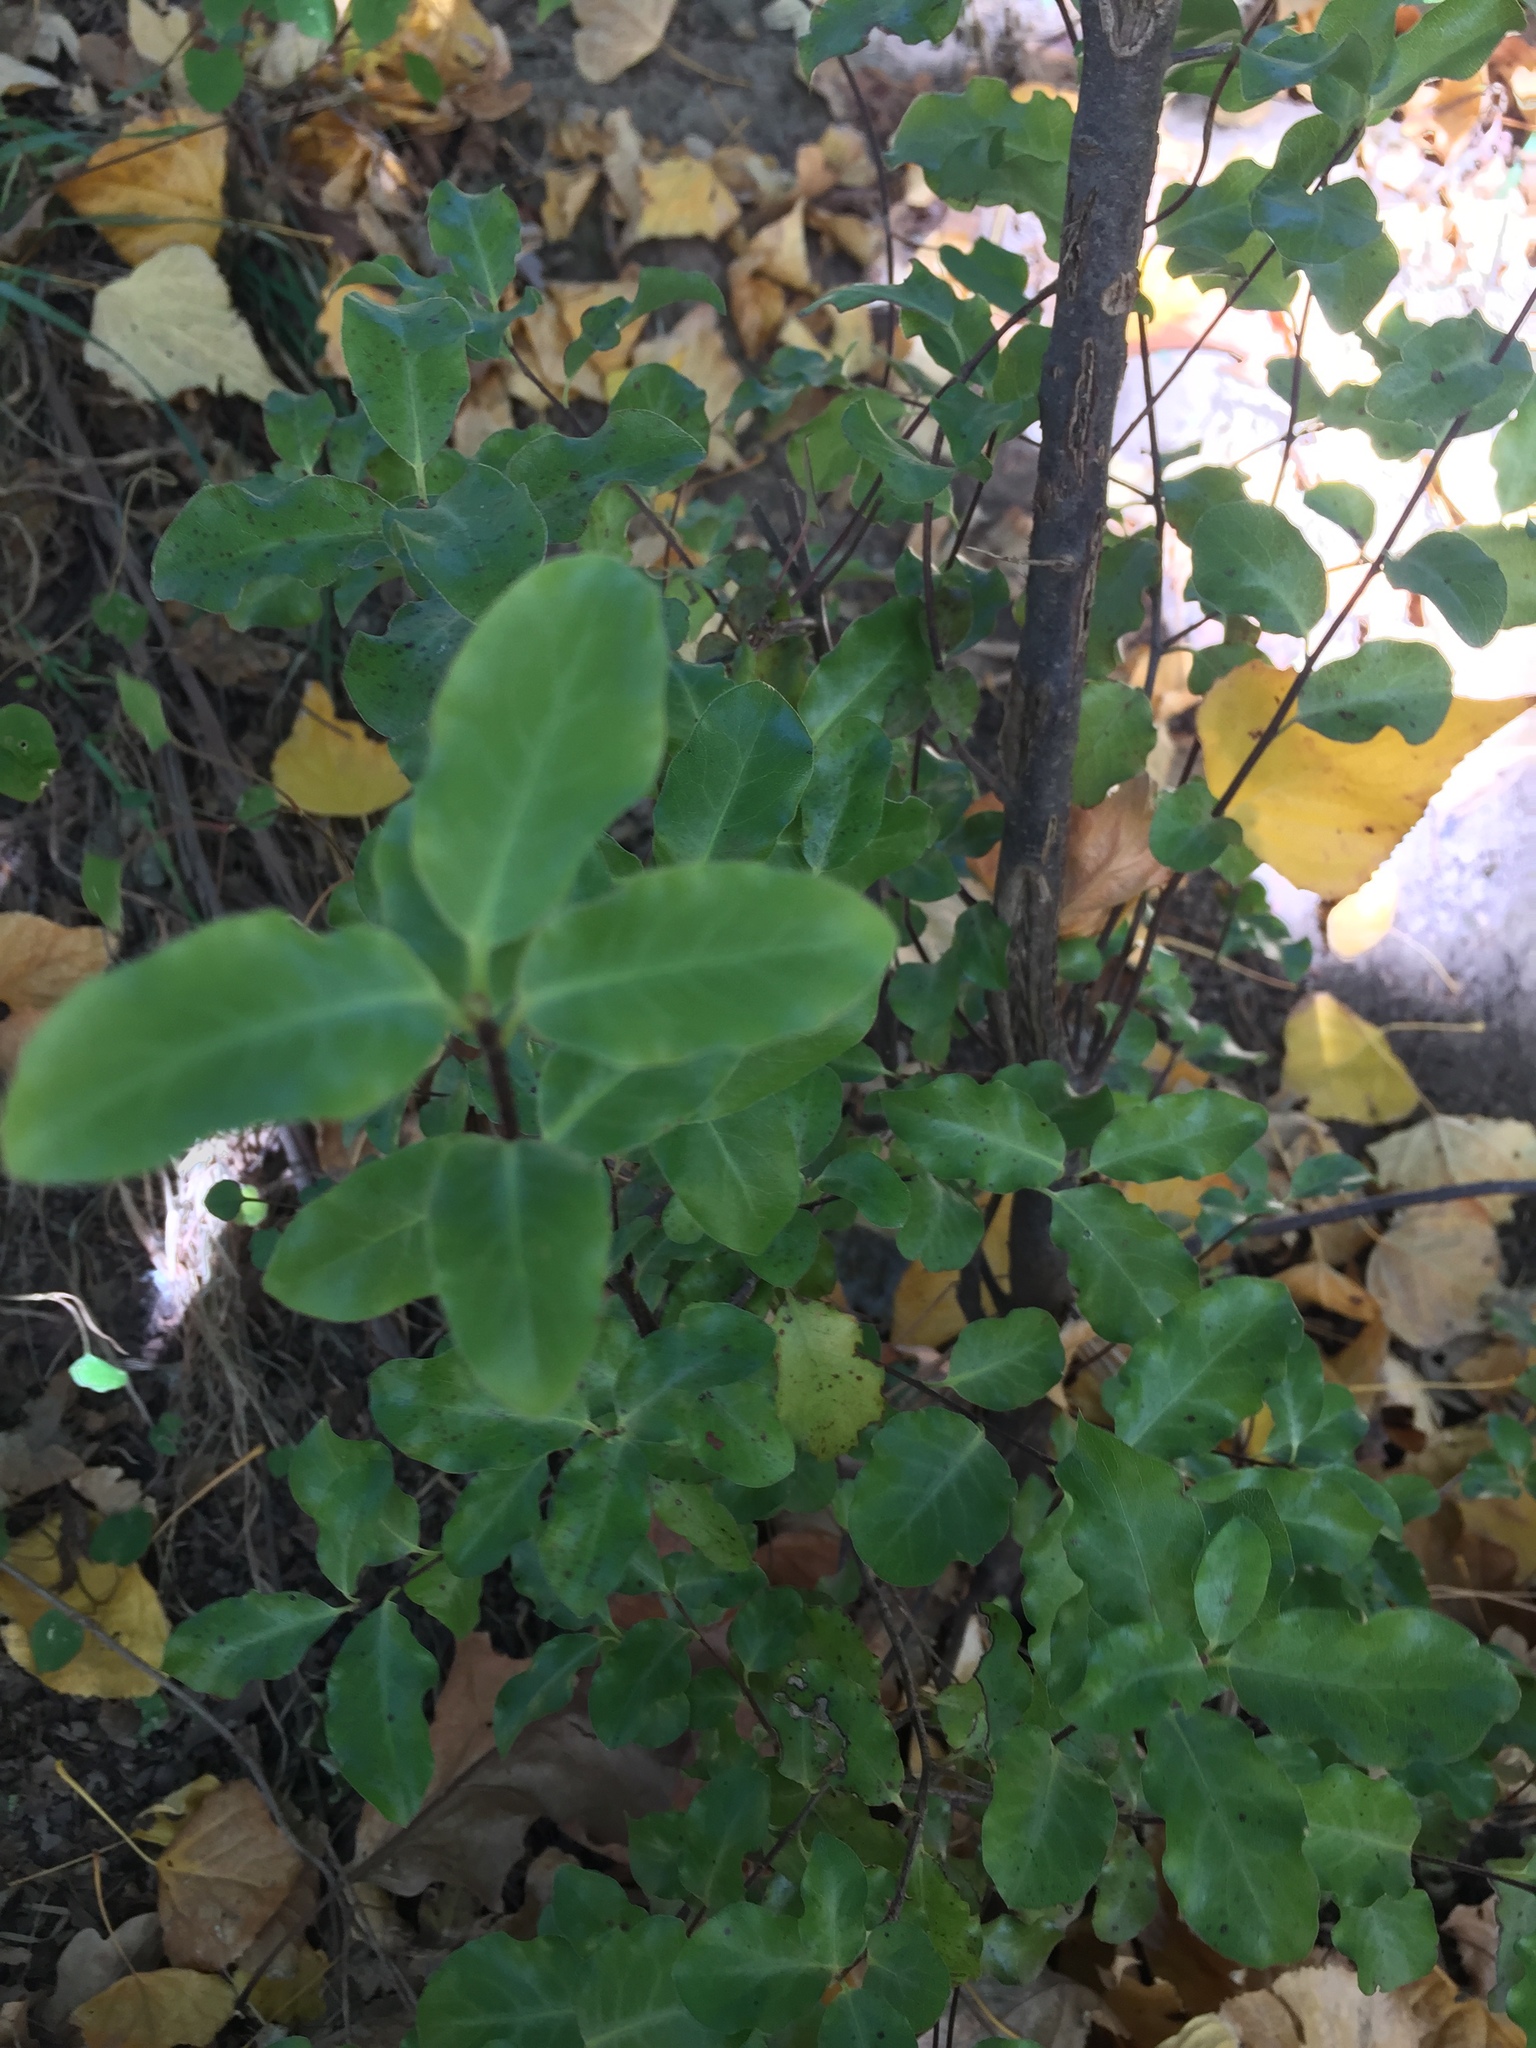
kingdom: Plantae
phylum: Tracheophyta
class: Magnoliopsida
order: Apiales
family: Pittosporaceae
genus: Pittosporum
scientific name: Pittosporum tenuifolium
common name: Kohuhu
